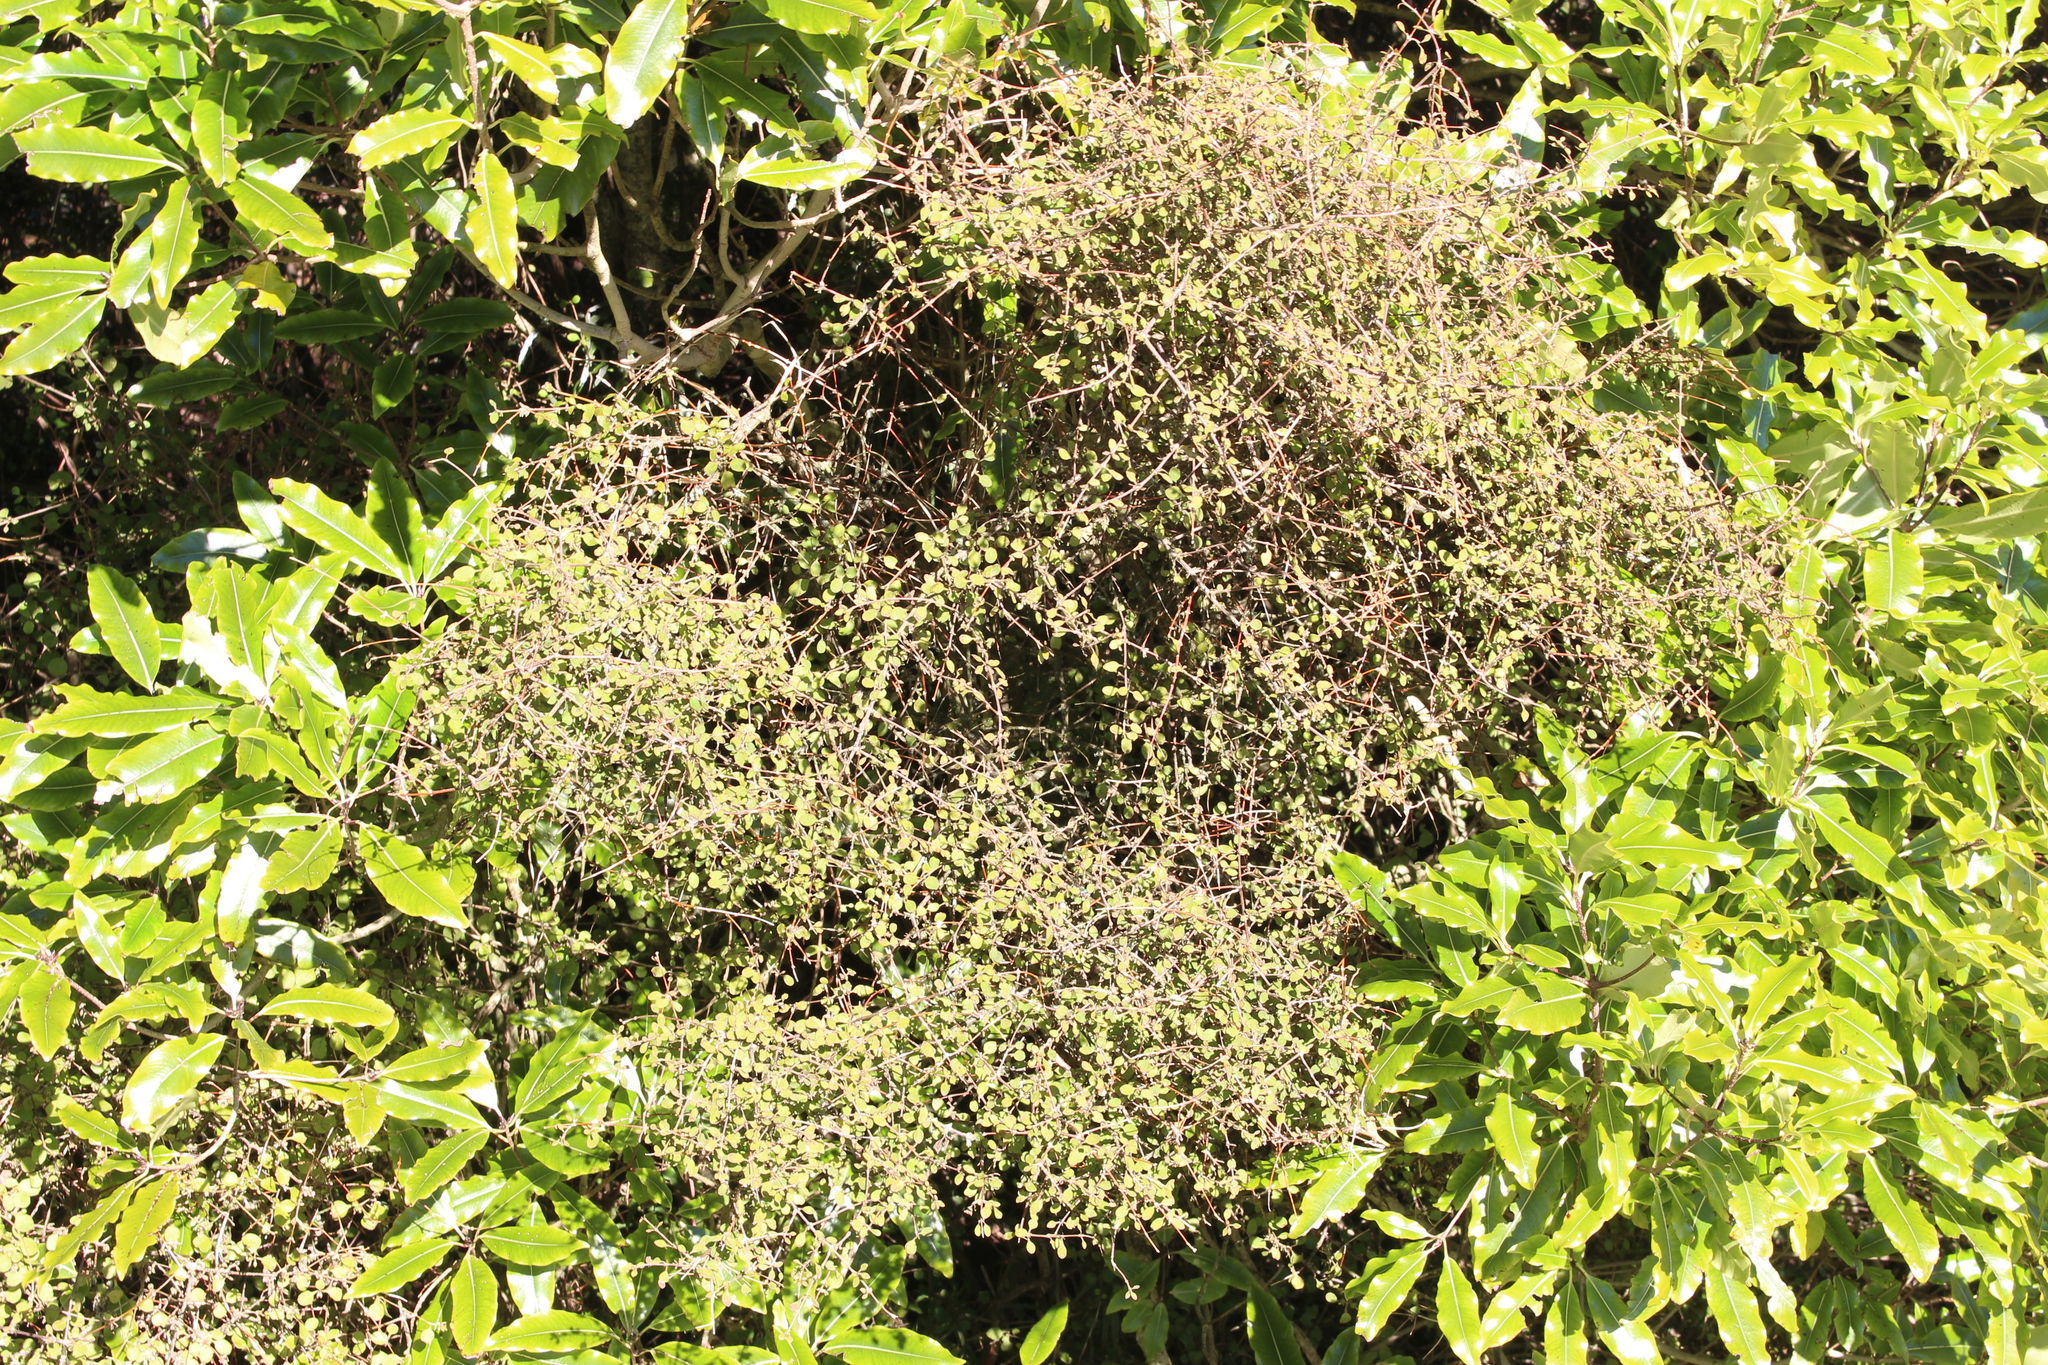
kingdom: Plantae
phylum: Tracheophyta
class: Magnoliopsida
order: Gentianales
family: Rubiaceae
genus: Coprosma
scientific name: Coprosma rubra
